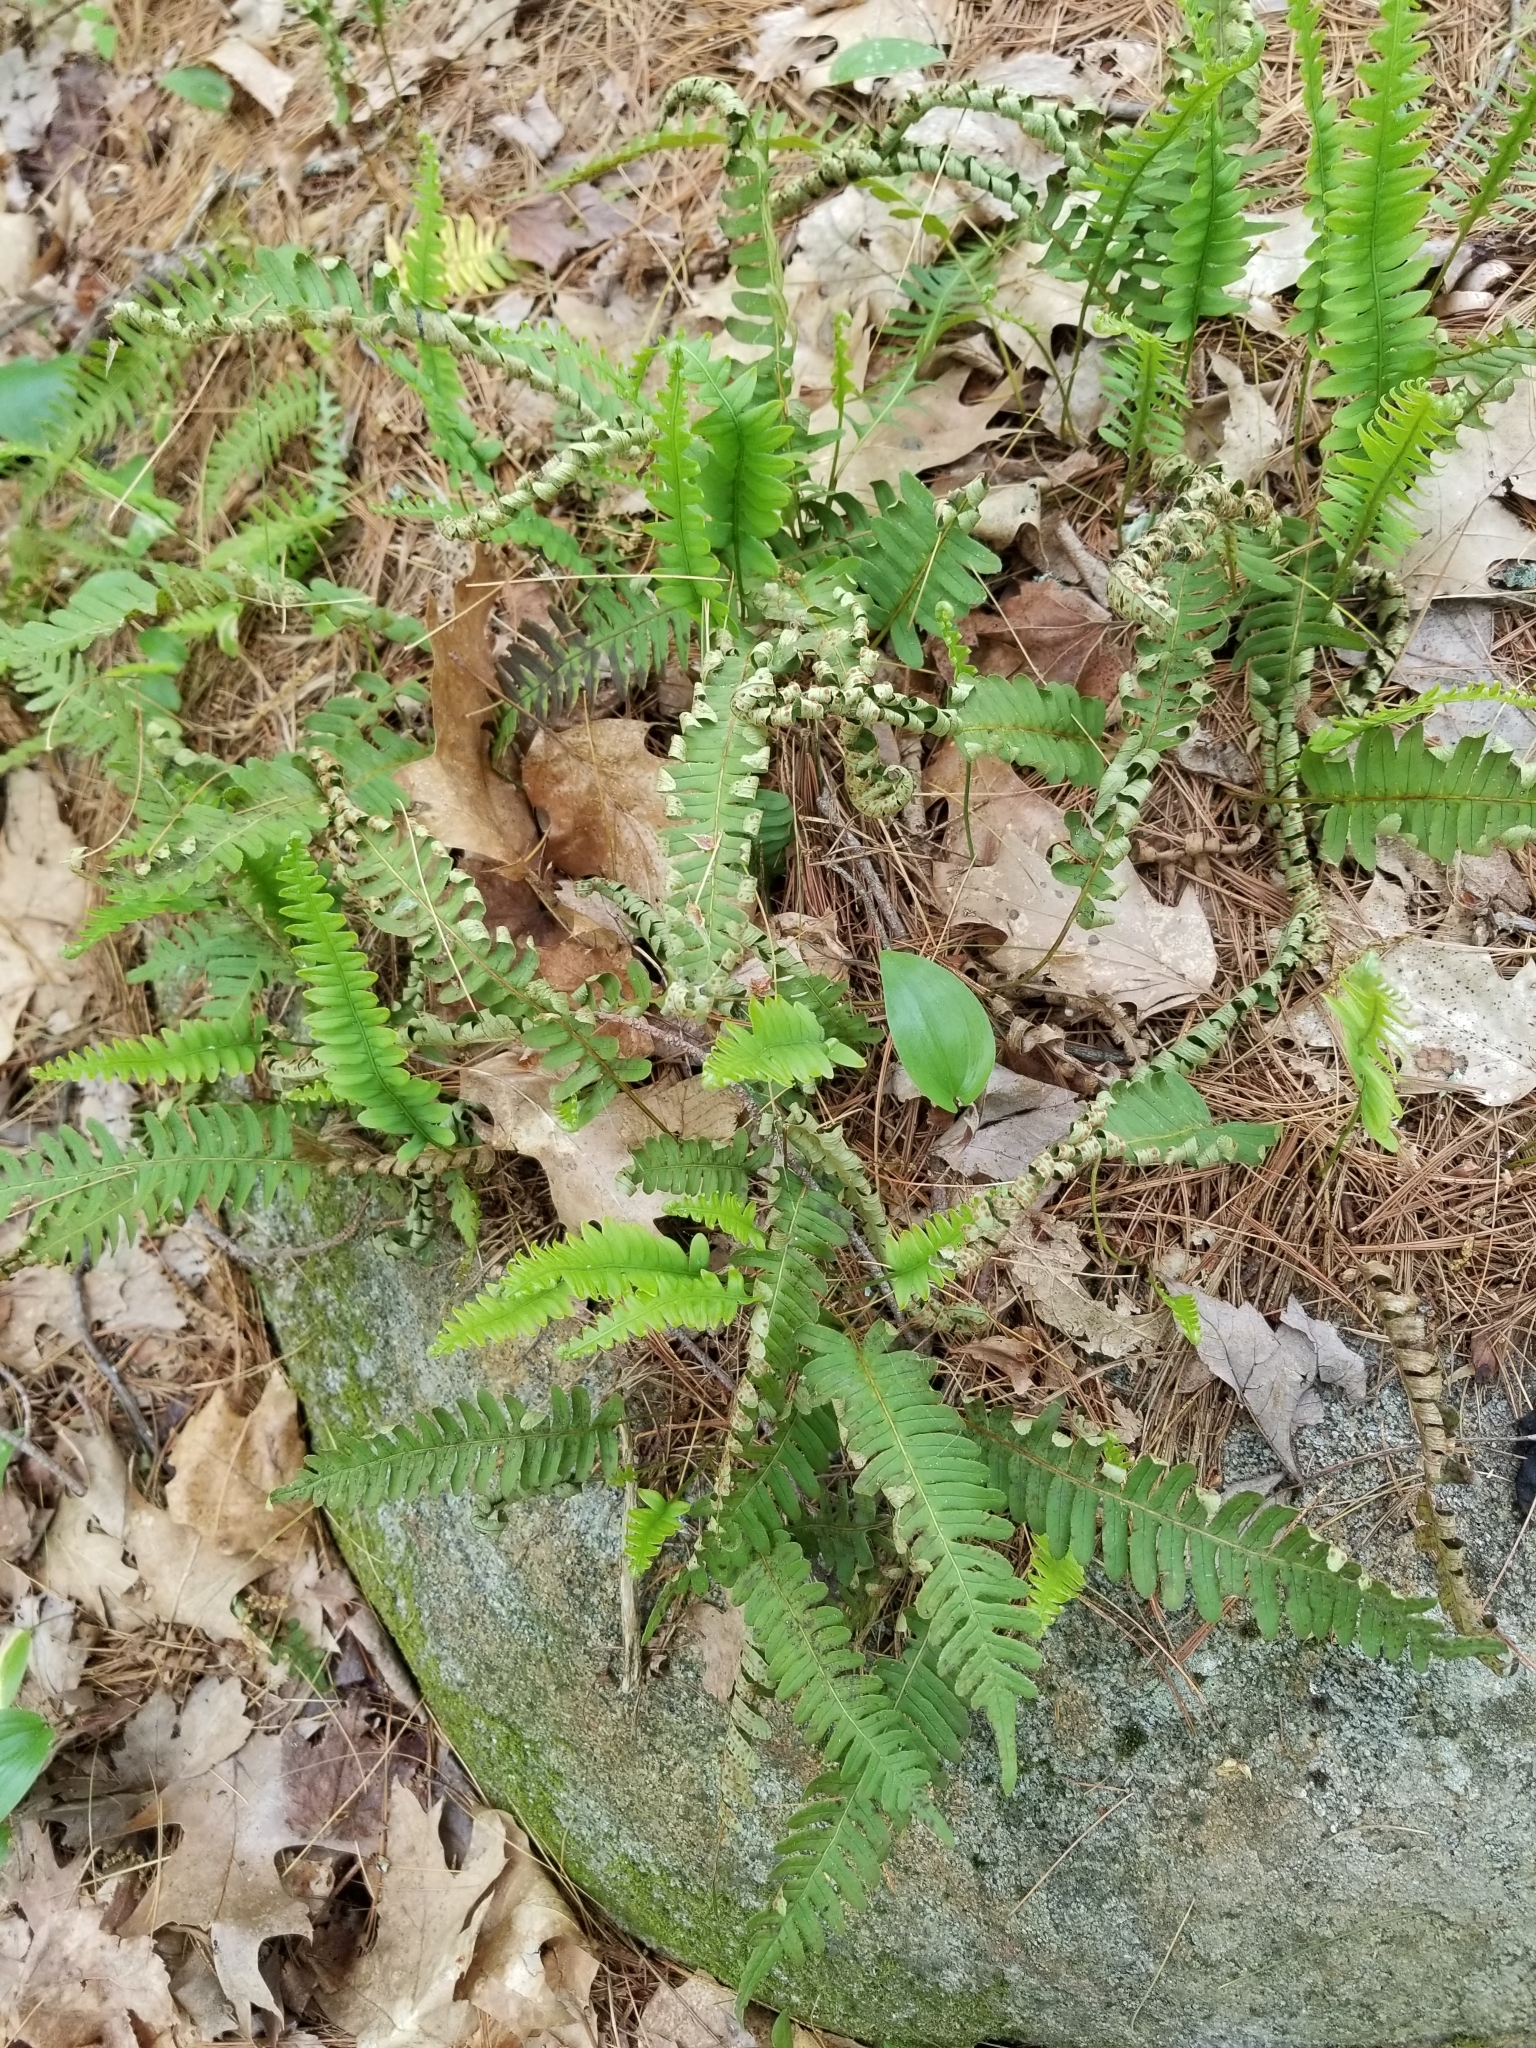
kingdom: Plantae
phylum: Tracheophyta
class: Polypodiopsida
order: Polypodiales
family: Dryopteridaceae
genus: Polystichum
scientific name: Polystichum acrostichoides
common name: Christmas fern
